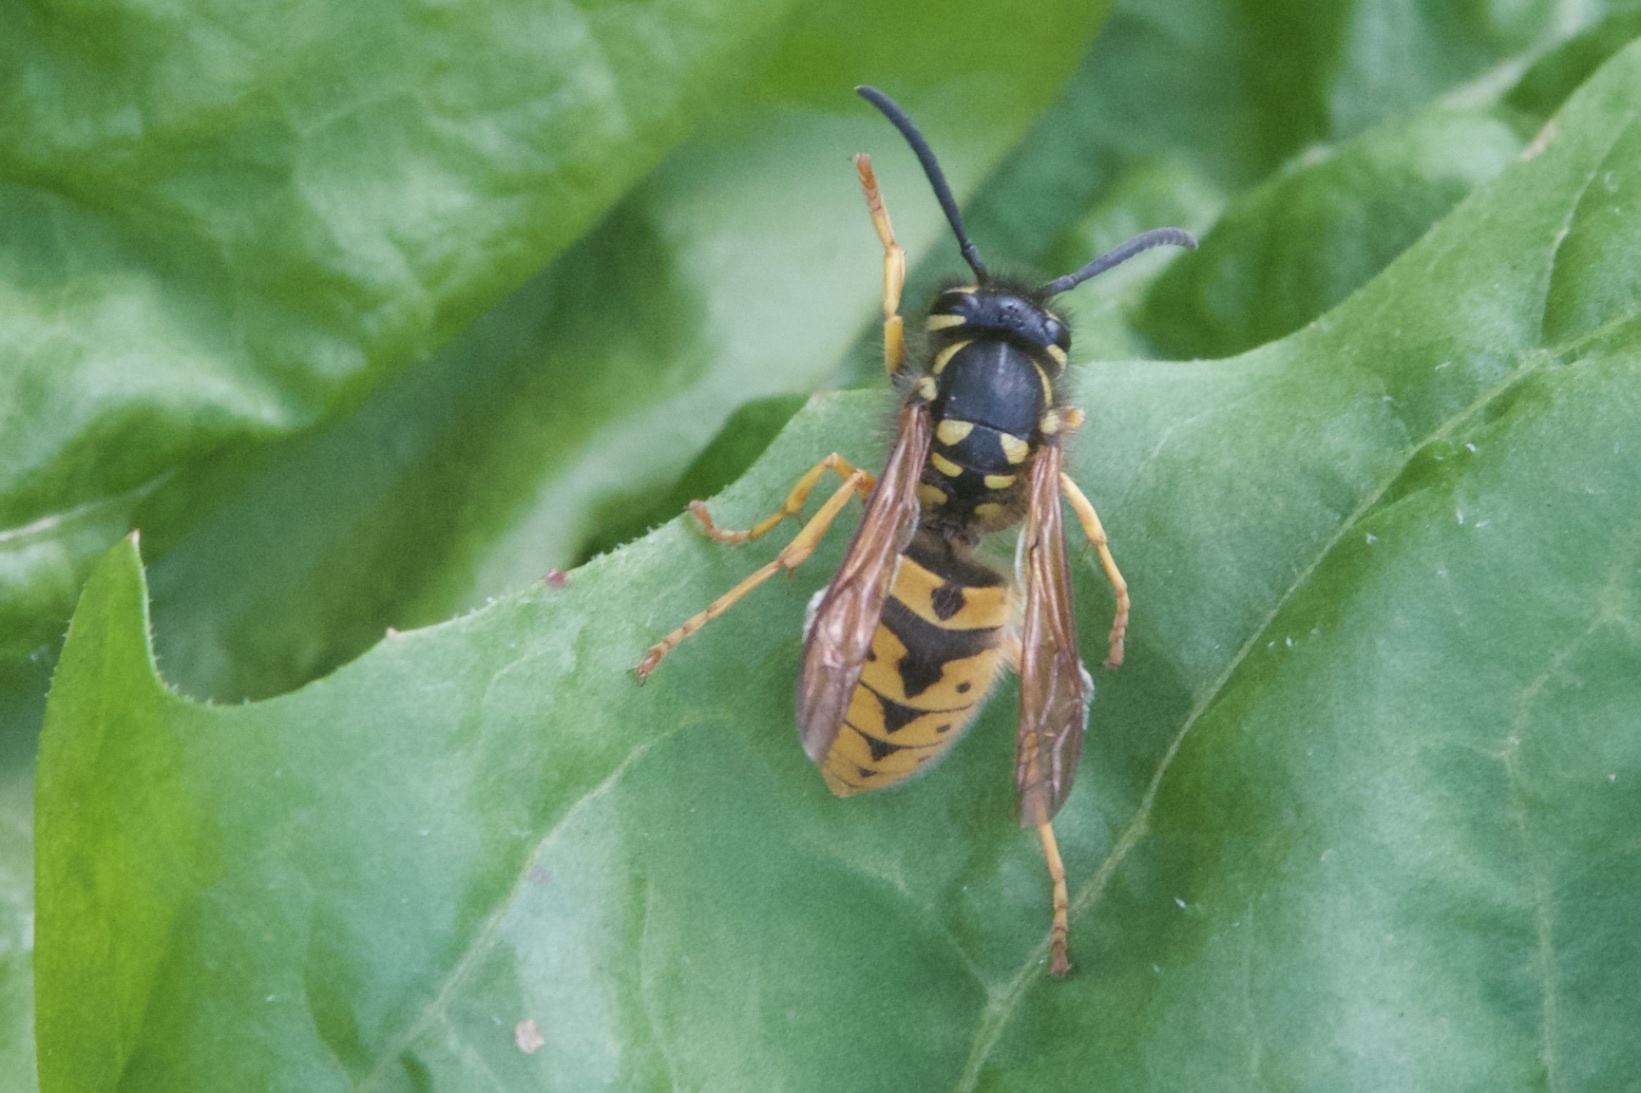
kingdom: Animalia
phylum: Arthropoda
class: Insecta
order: Hymenoptera
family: Vespidae
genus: Vespula
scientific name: Vespula germanica
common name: German wasp
